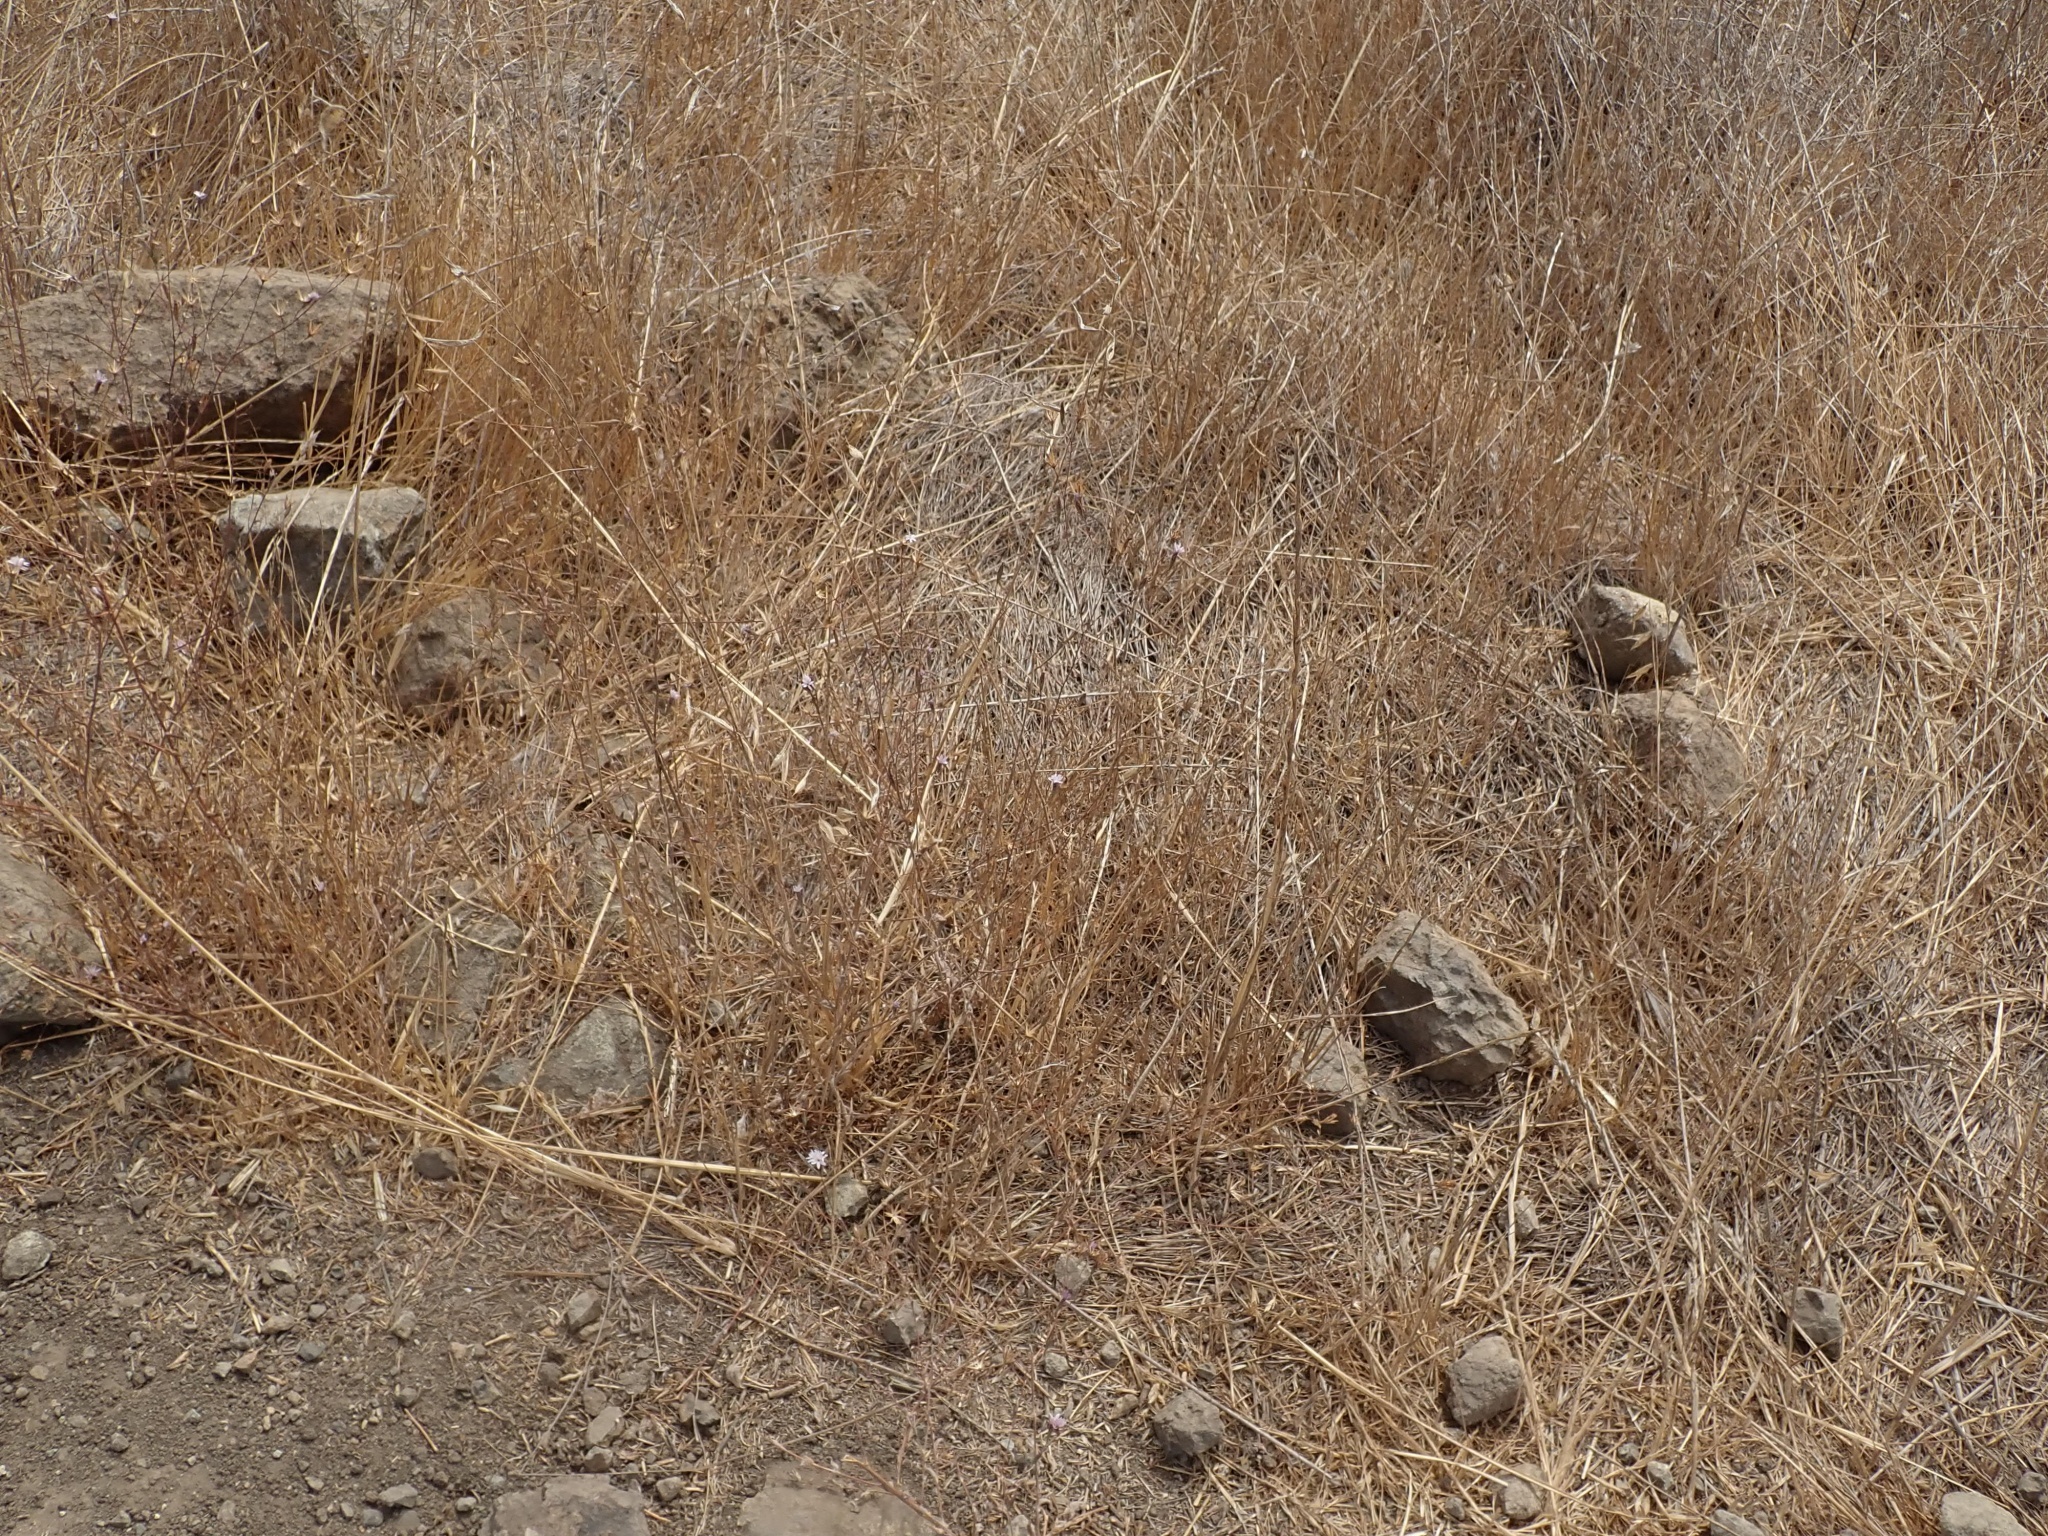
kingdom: Plantae
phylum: Tracheophyta
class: Magnoliopsida
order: Asterales
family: Asteraceae
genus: Lessingia
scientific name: Lessingia micradenia
